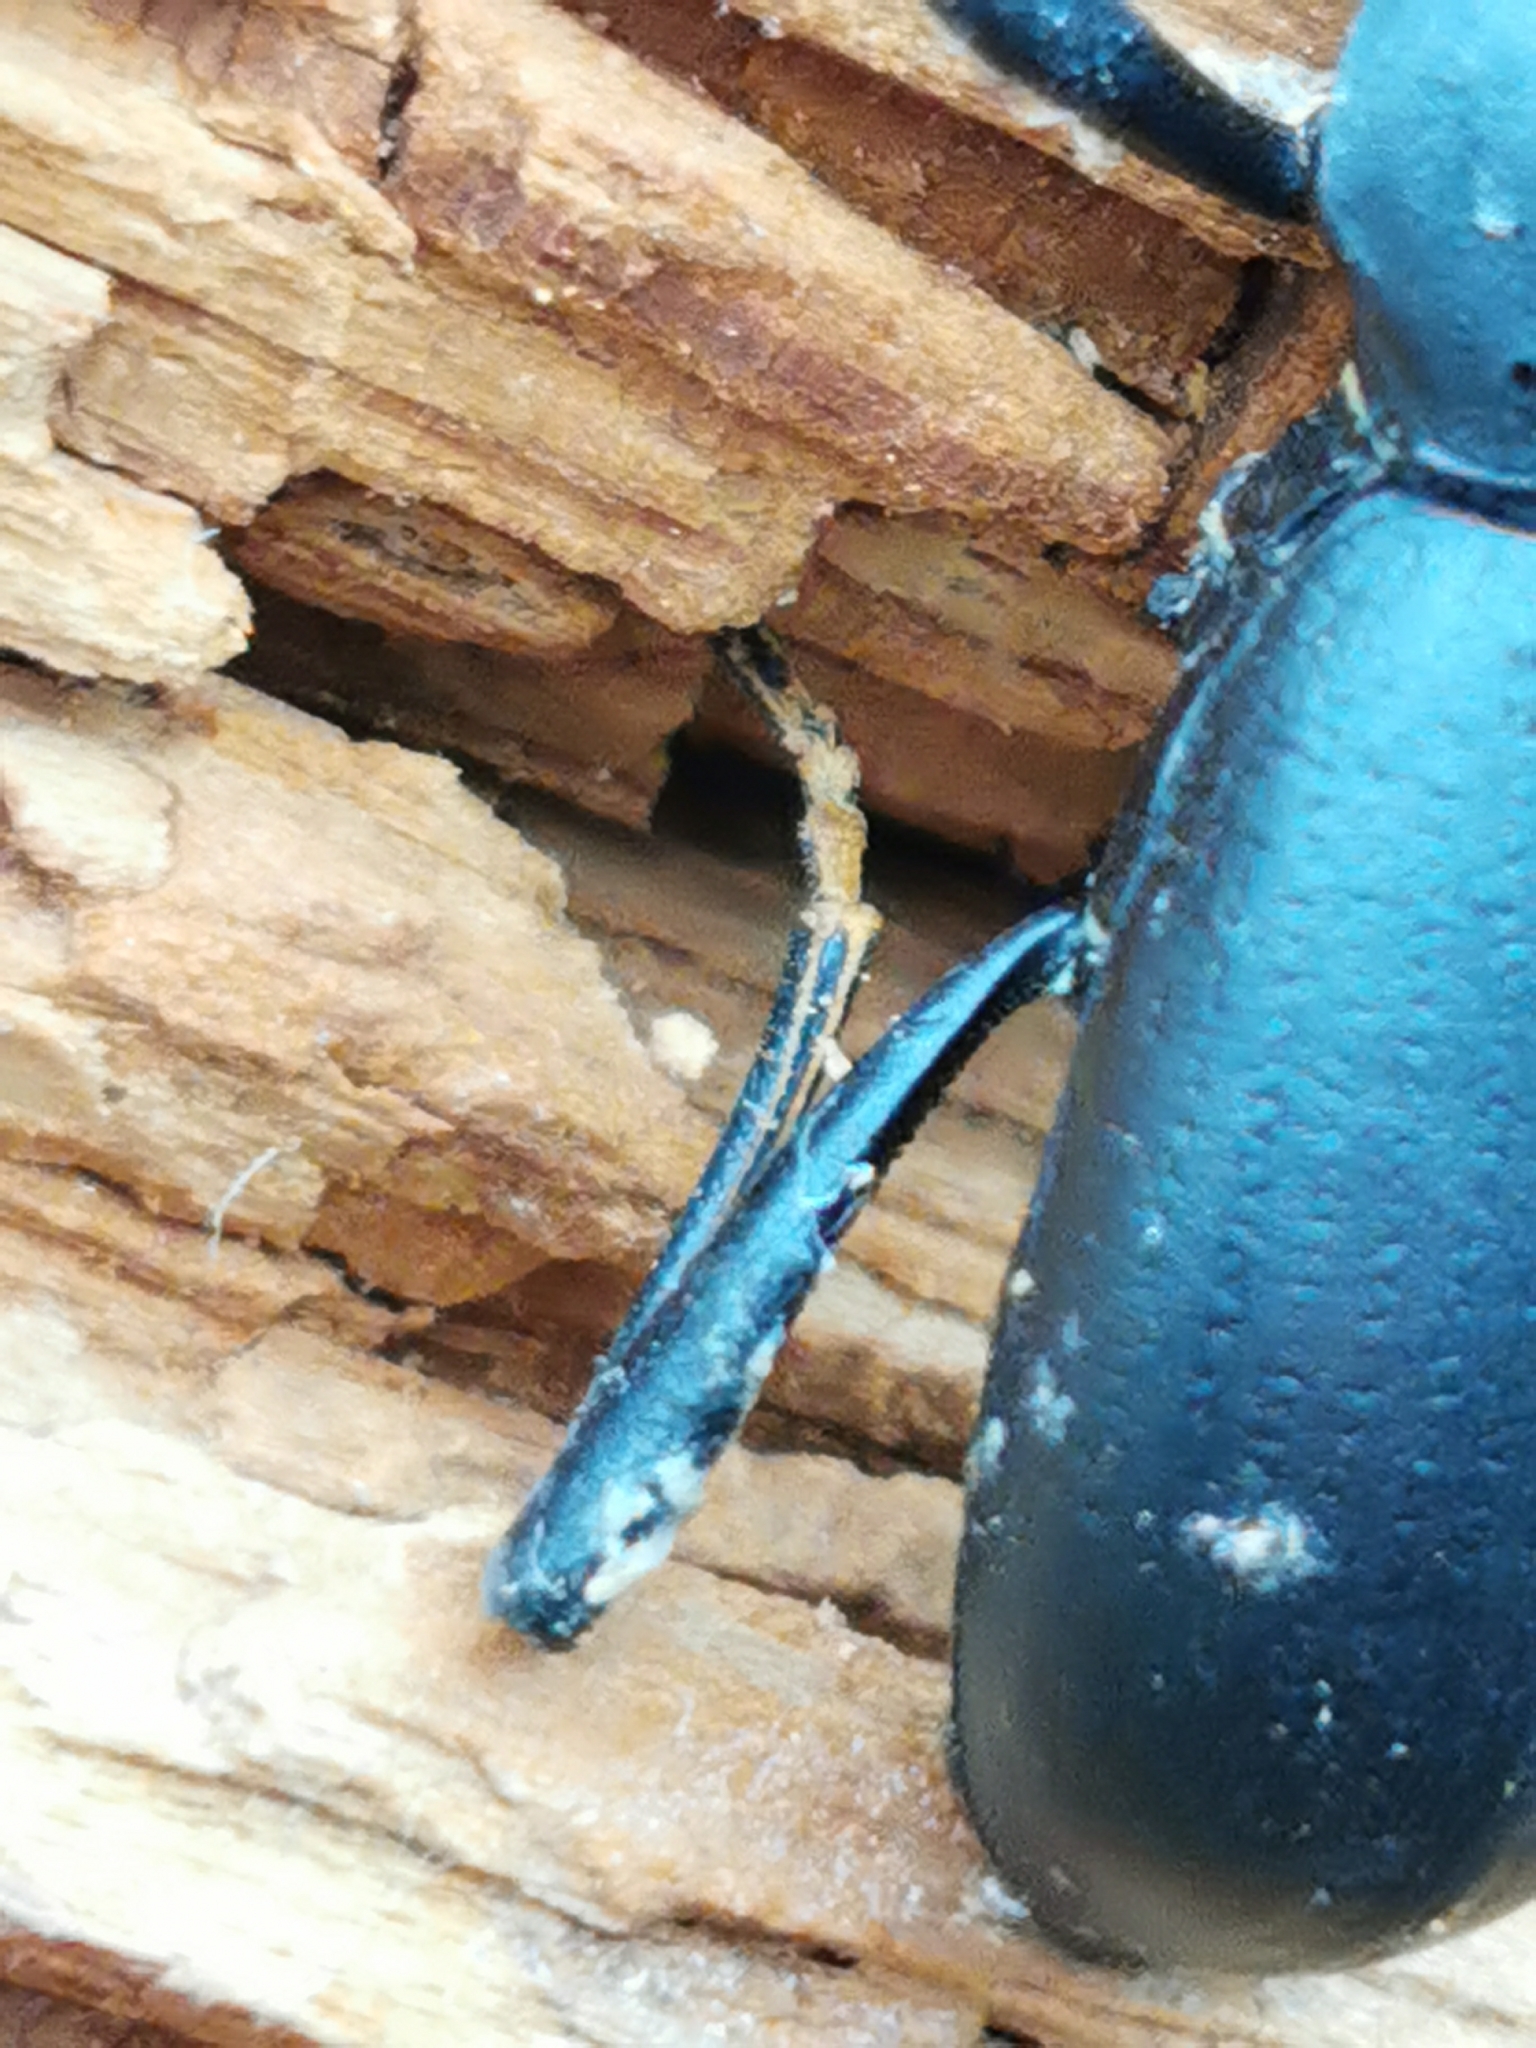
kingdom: Animalia
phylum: Arthropoda
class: Insecta
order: Coleoptera
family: Tenebrionidae
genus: Coelocnemis
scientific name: Coelocnemis dilaticollis
